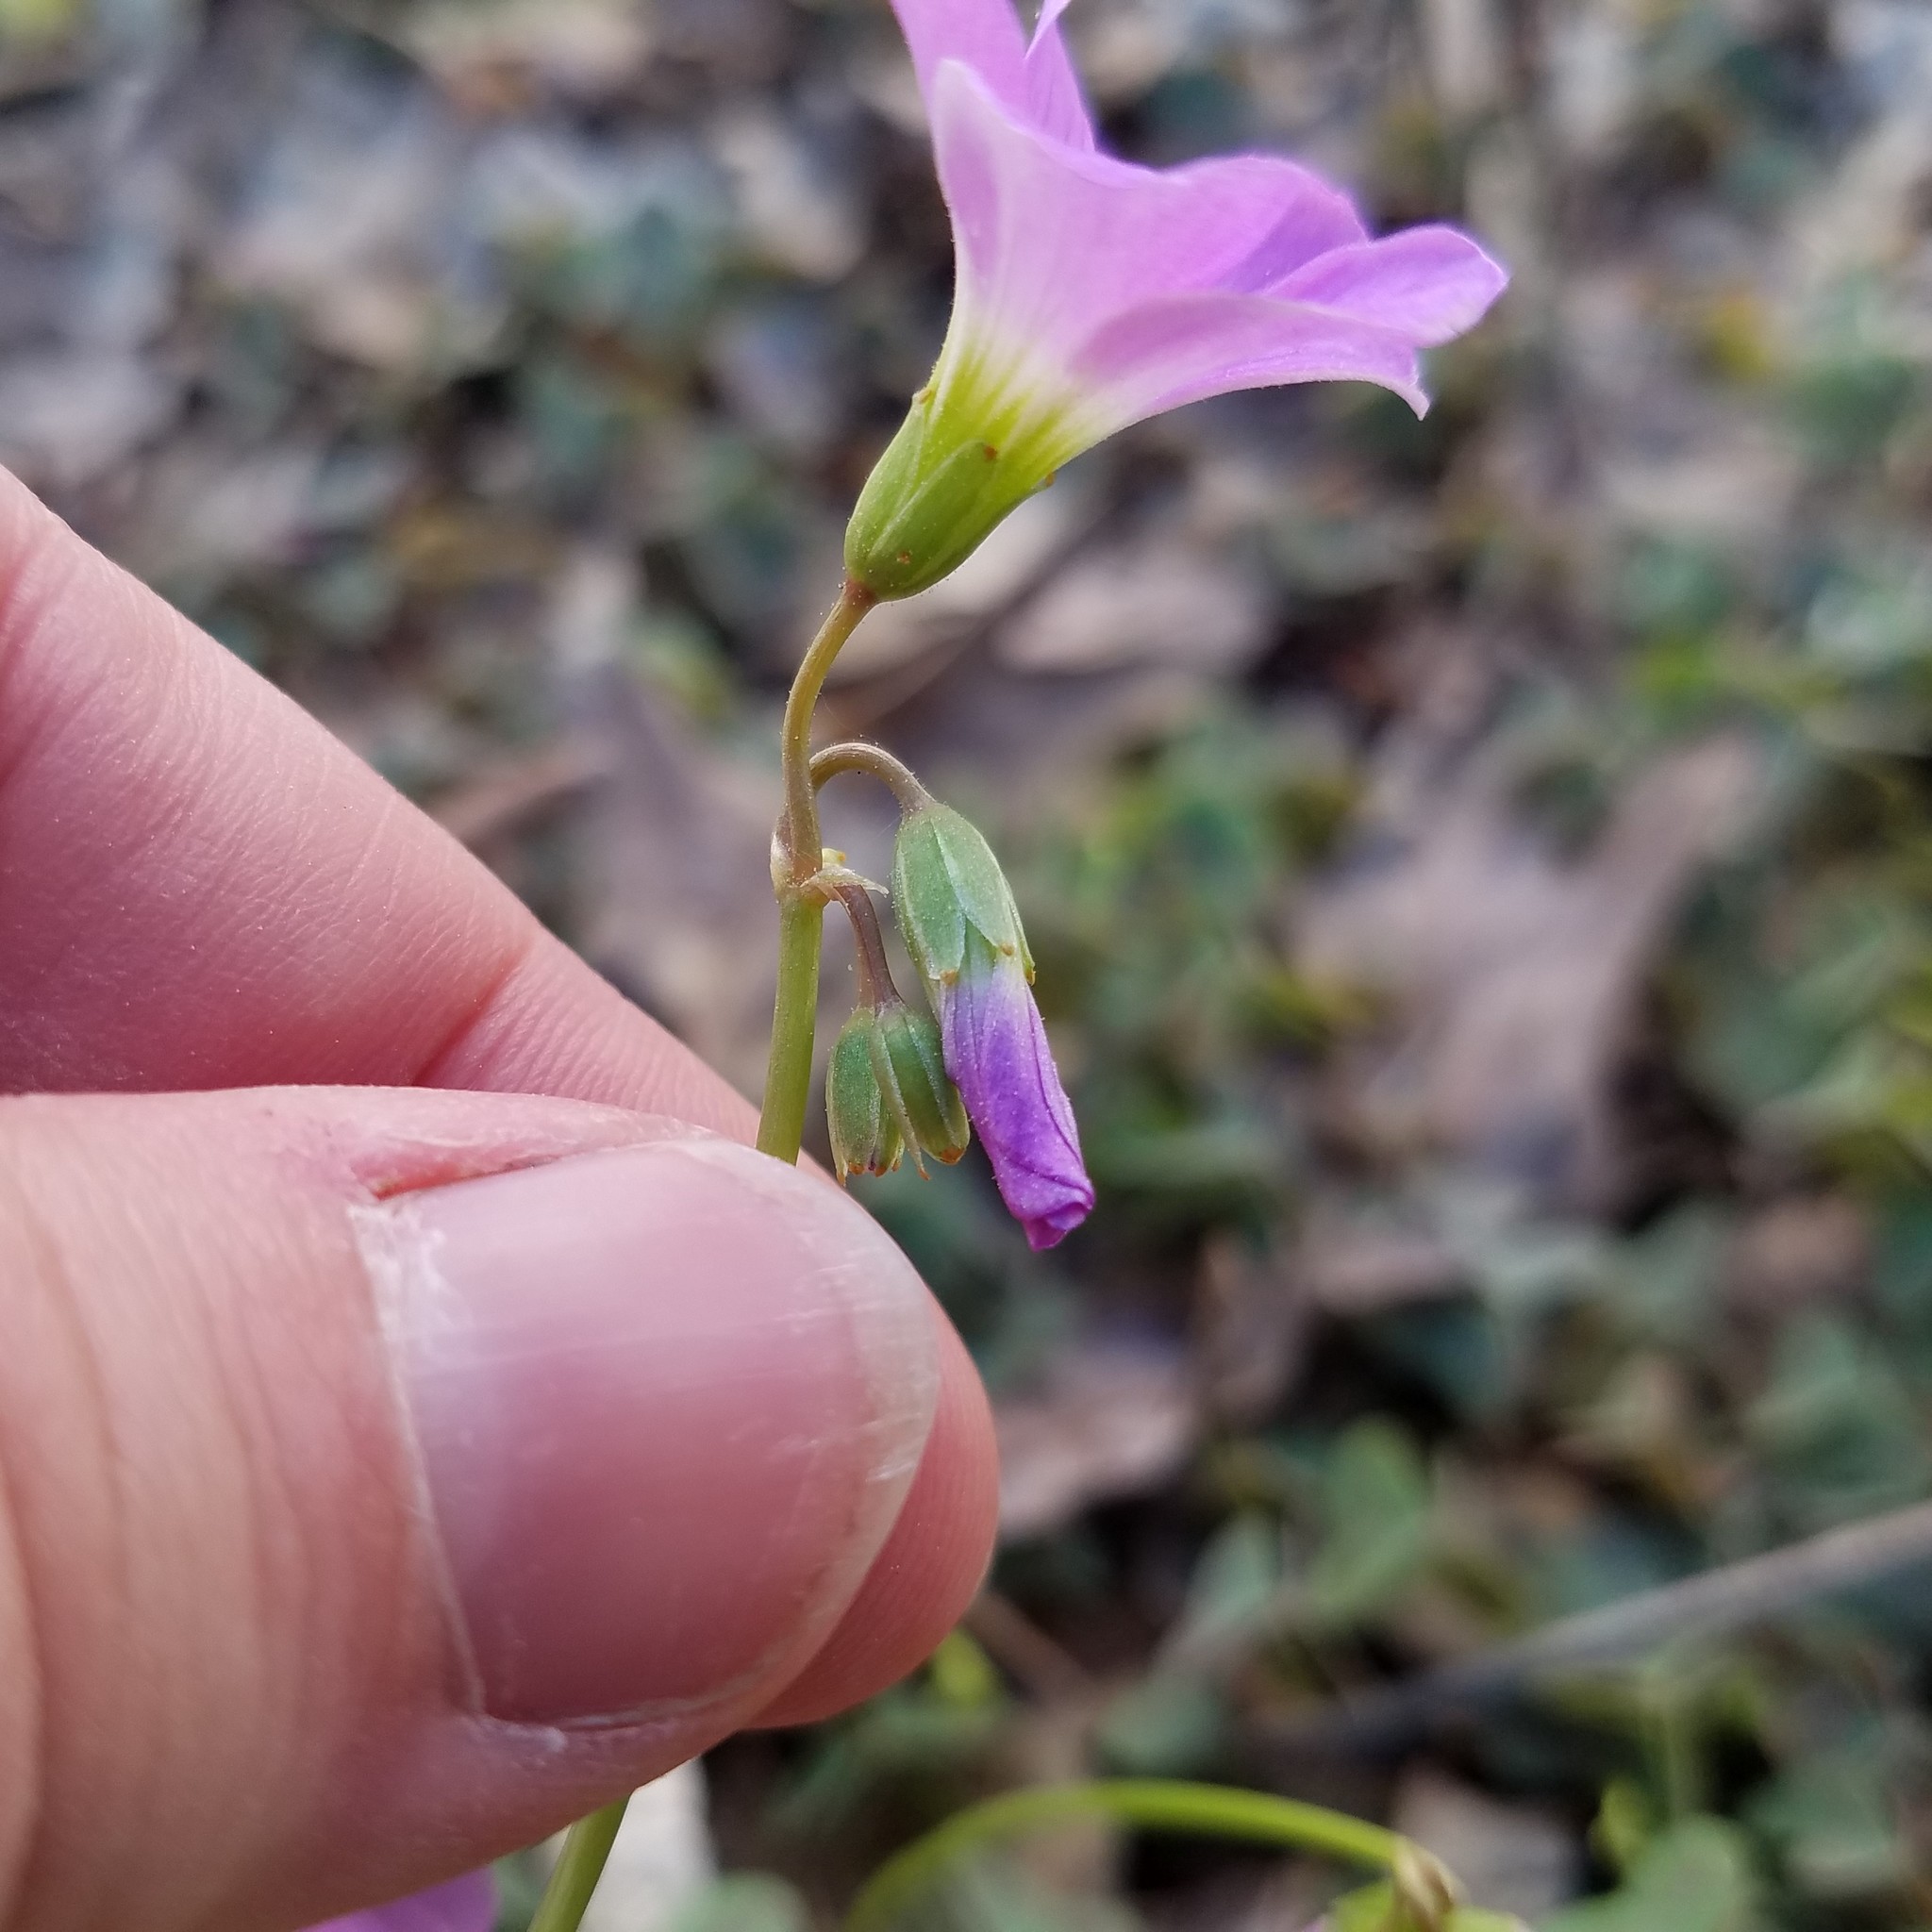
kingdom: Plantae
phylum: Tracheophyta
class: Magnoliopsida
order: Oxalidales
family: Oxalidaceae
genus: Oxalis
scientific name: Oxalis violacea
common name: Violet wood-sorrel
